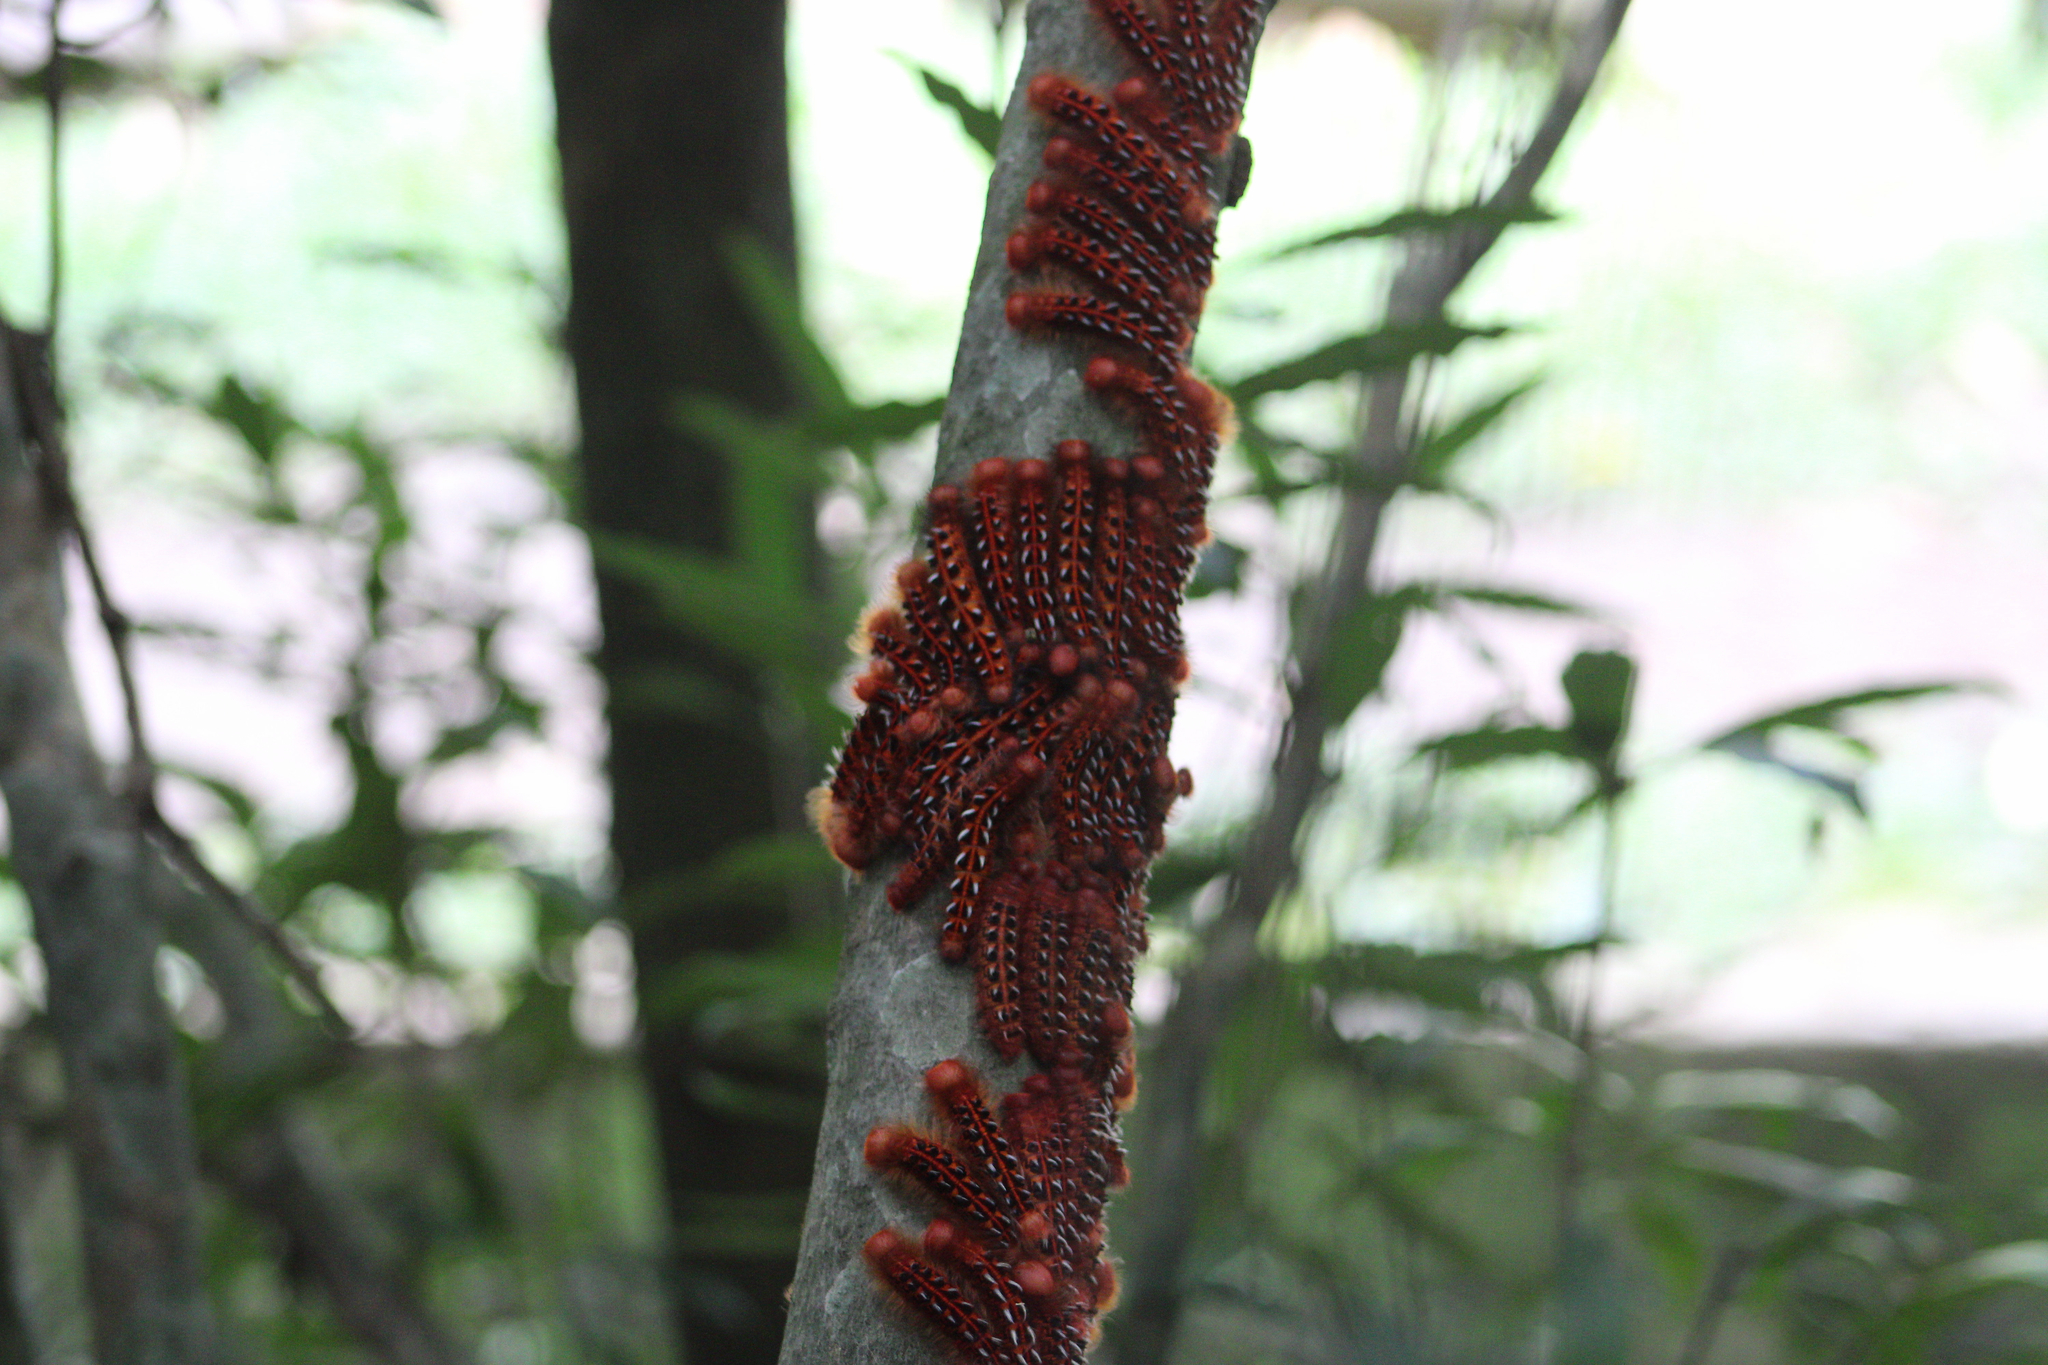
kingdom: Animalia
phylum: Arthropoda
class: Insecta
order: Lepidoptera
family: Nymphalidae
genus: Morpho
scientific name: Morpho hercules
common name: Hercules morpho
